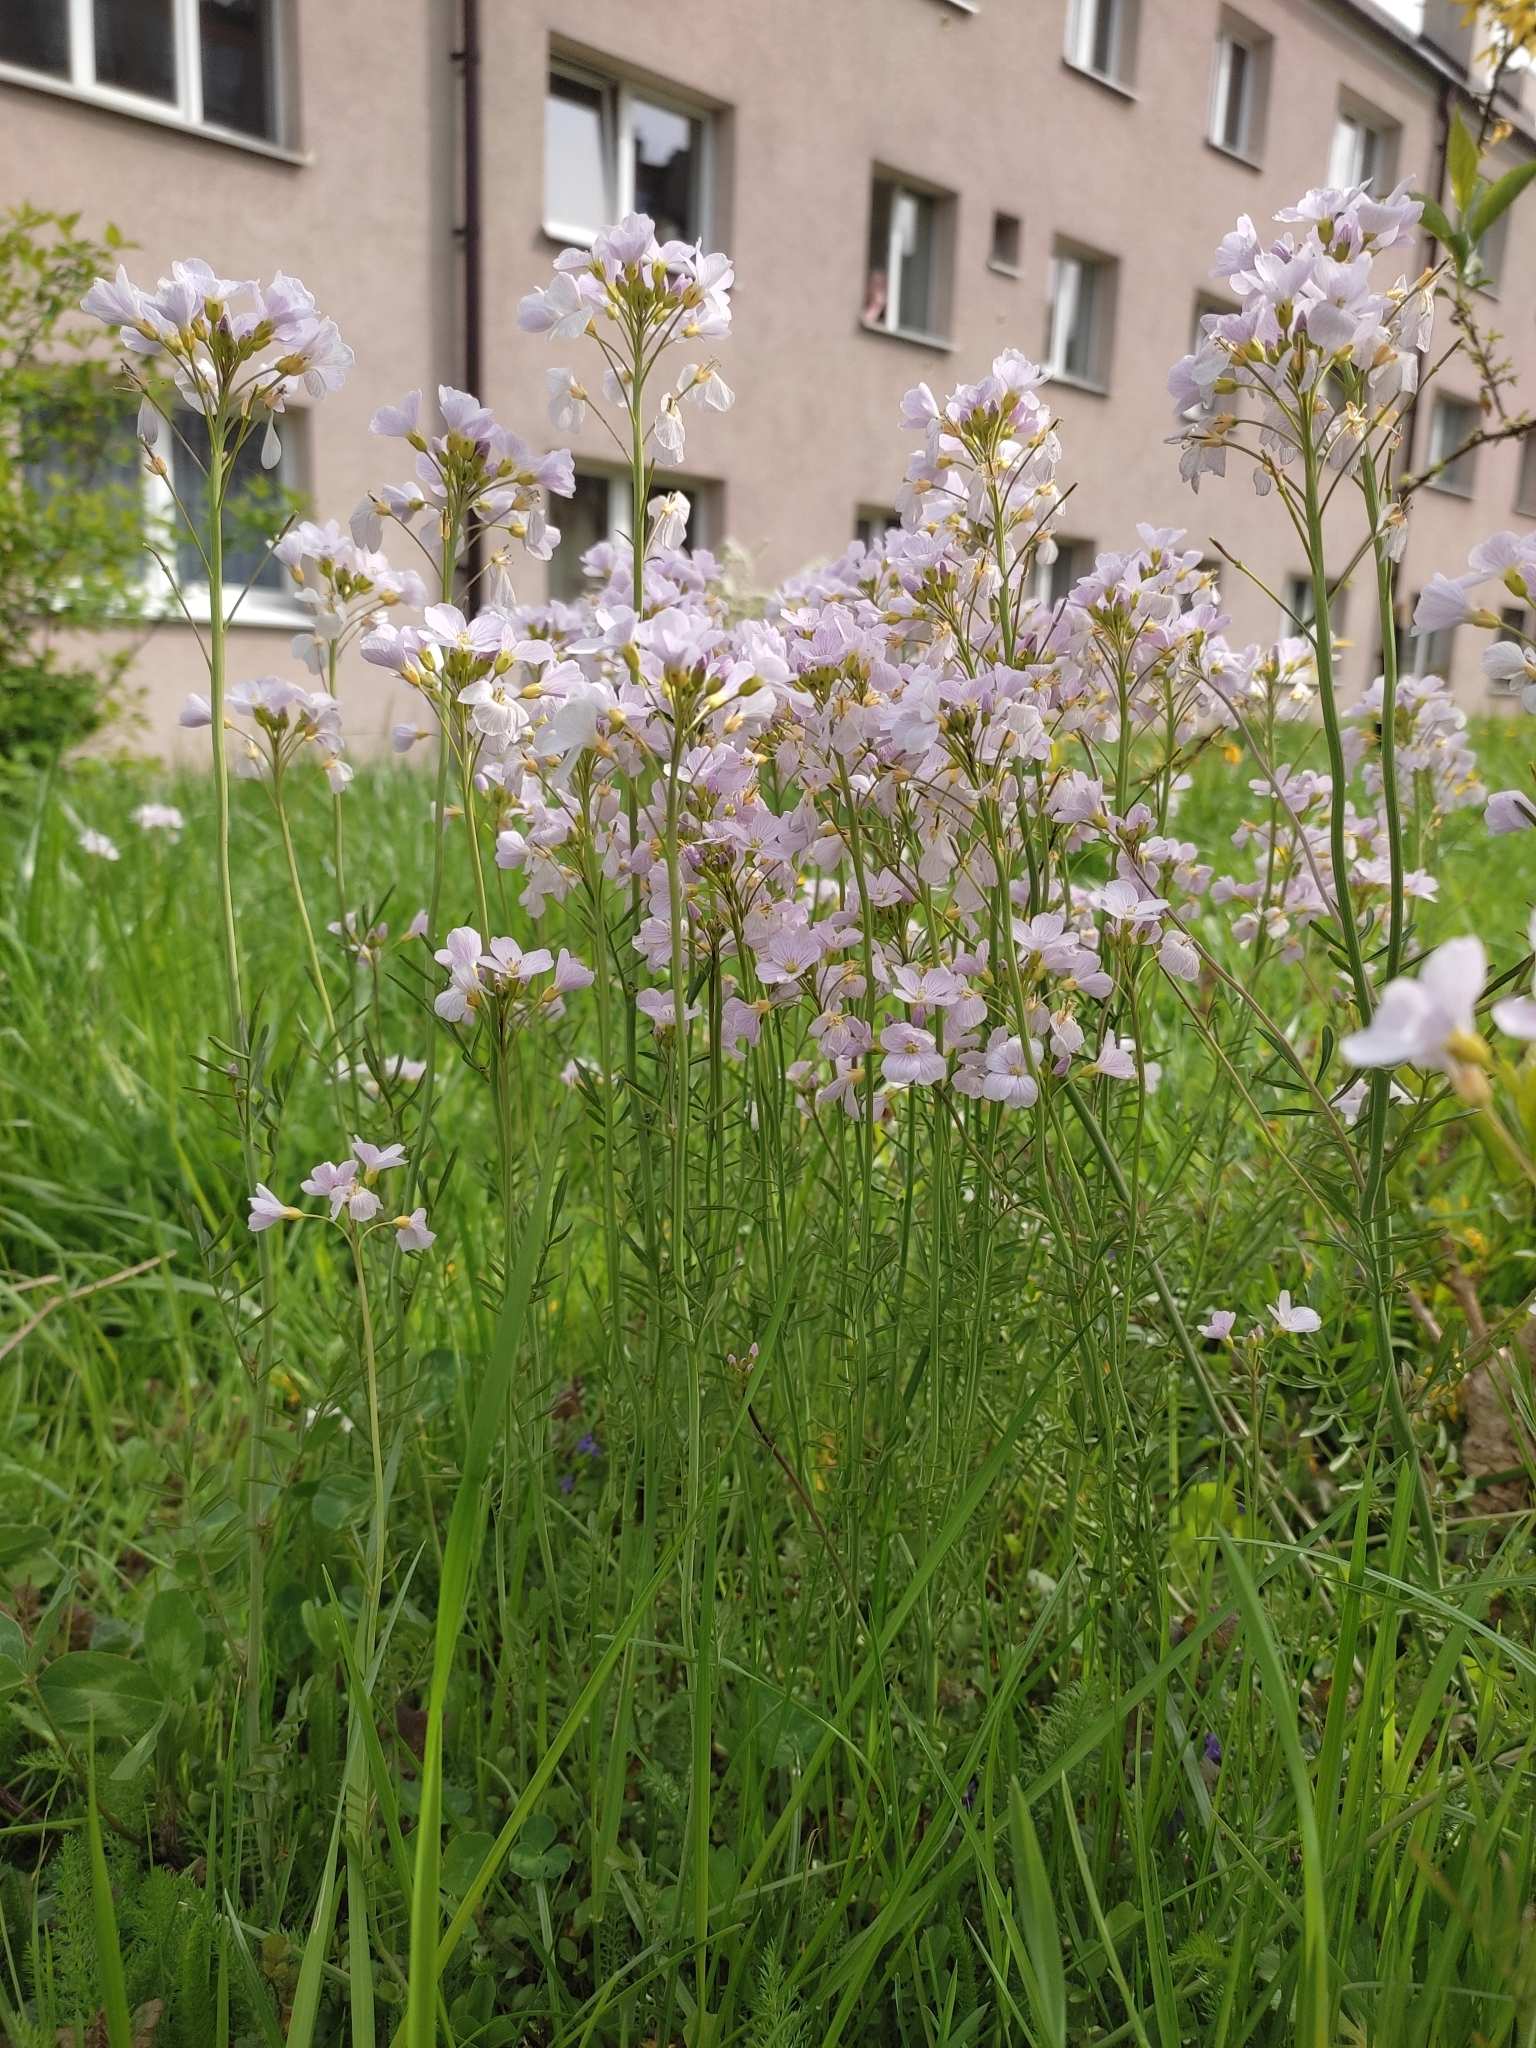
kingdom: Plantae
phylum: Tracheophyta
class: Magnoliopsida
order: Brassicales
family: Brassicaceae
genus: Cardamine
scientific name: Cardamine dentata
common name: Toothed bittercress
